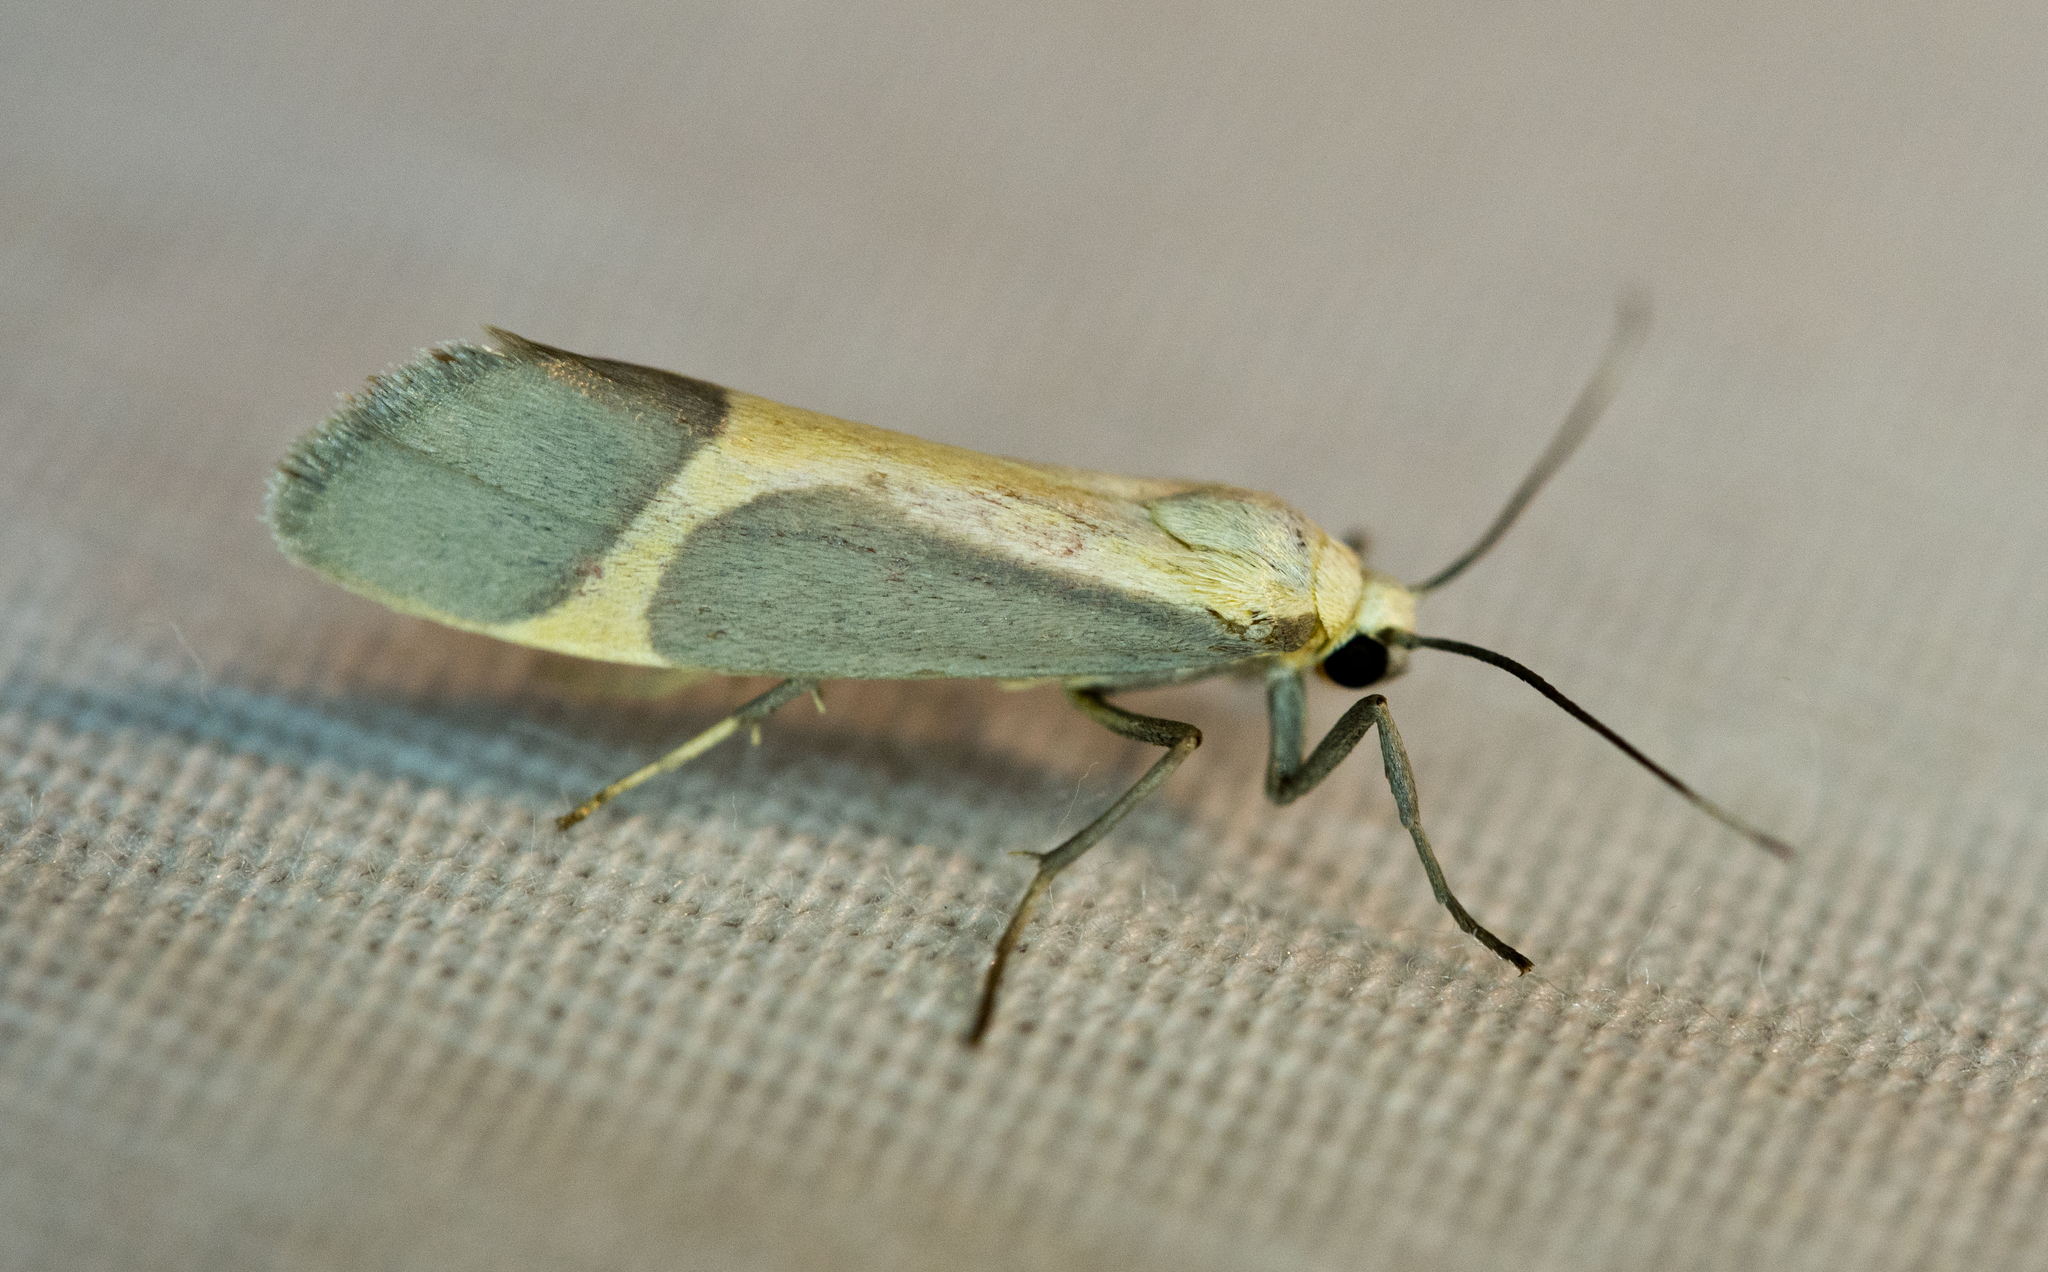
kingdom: Animalia
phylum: Arthropoda
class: Insecta
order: Lepidoptera
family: Erebidae
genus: Cisthene
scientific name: Cisthene angelus
